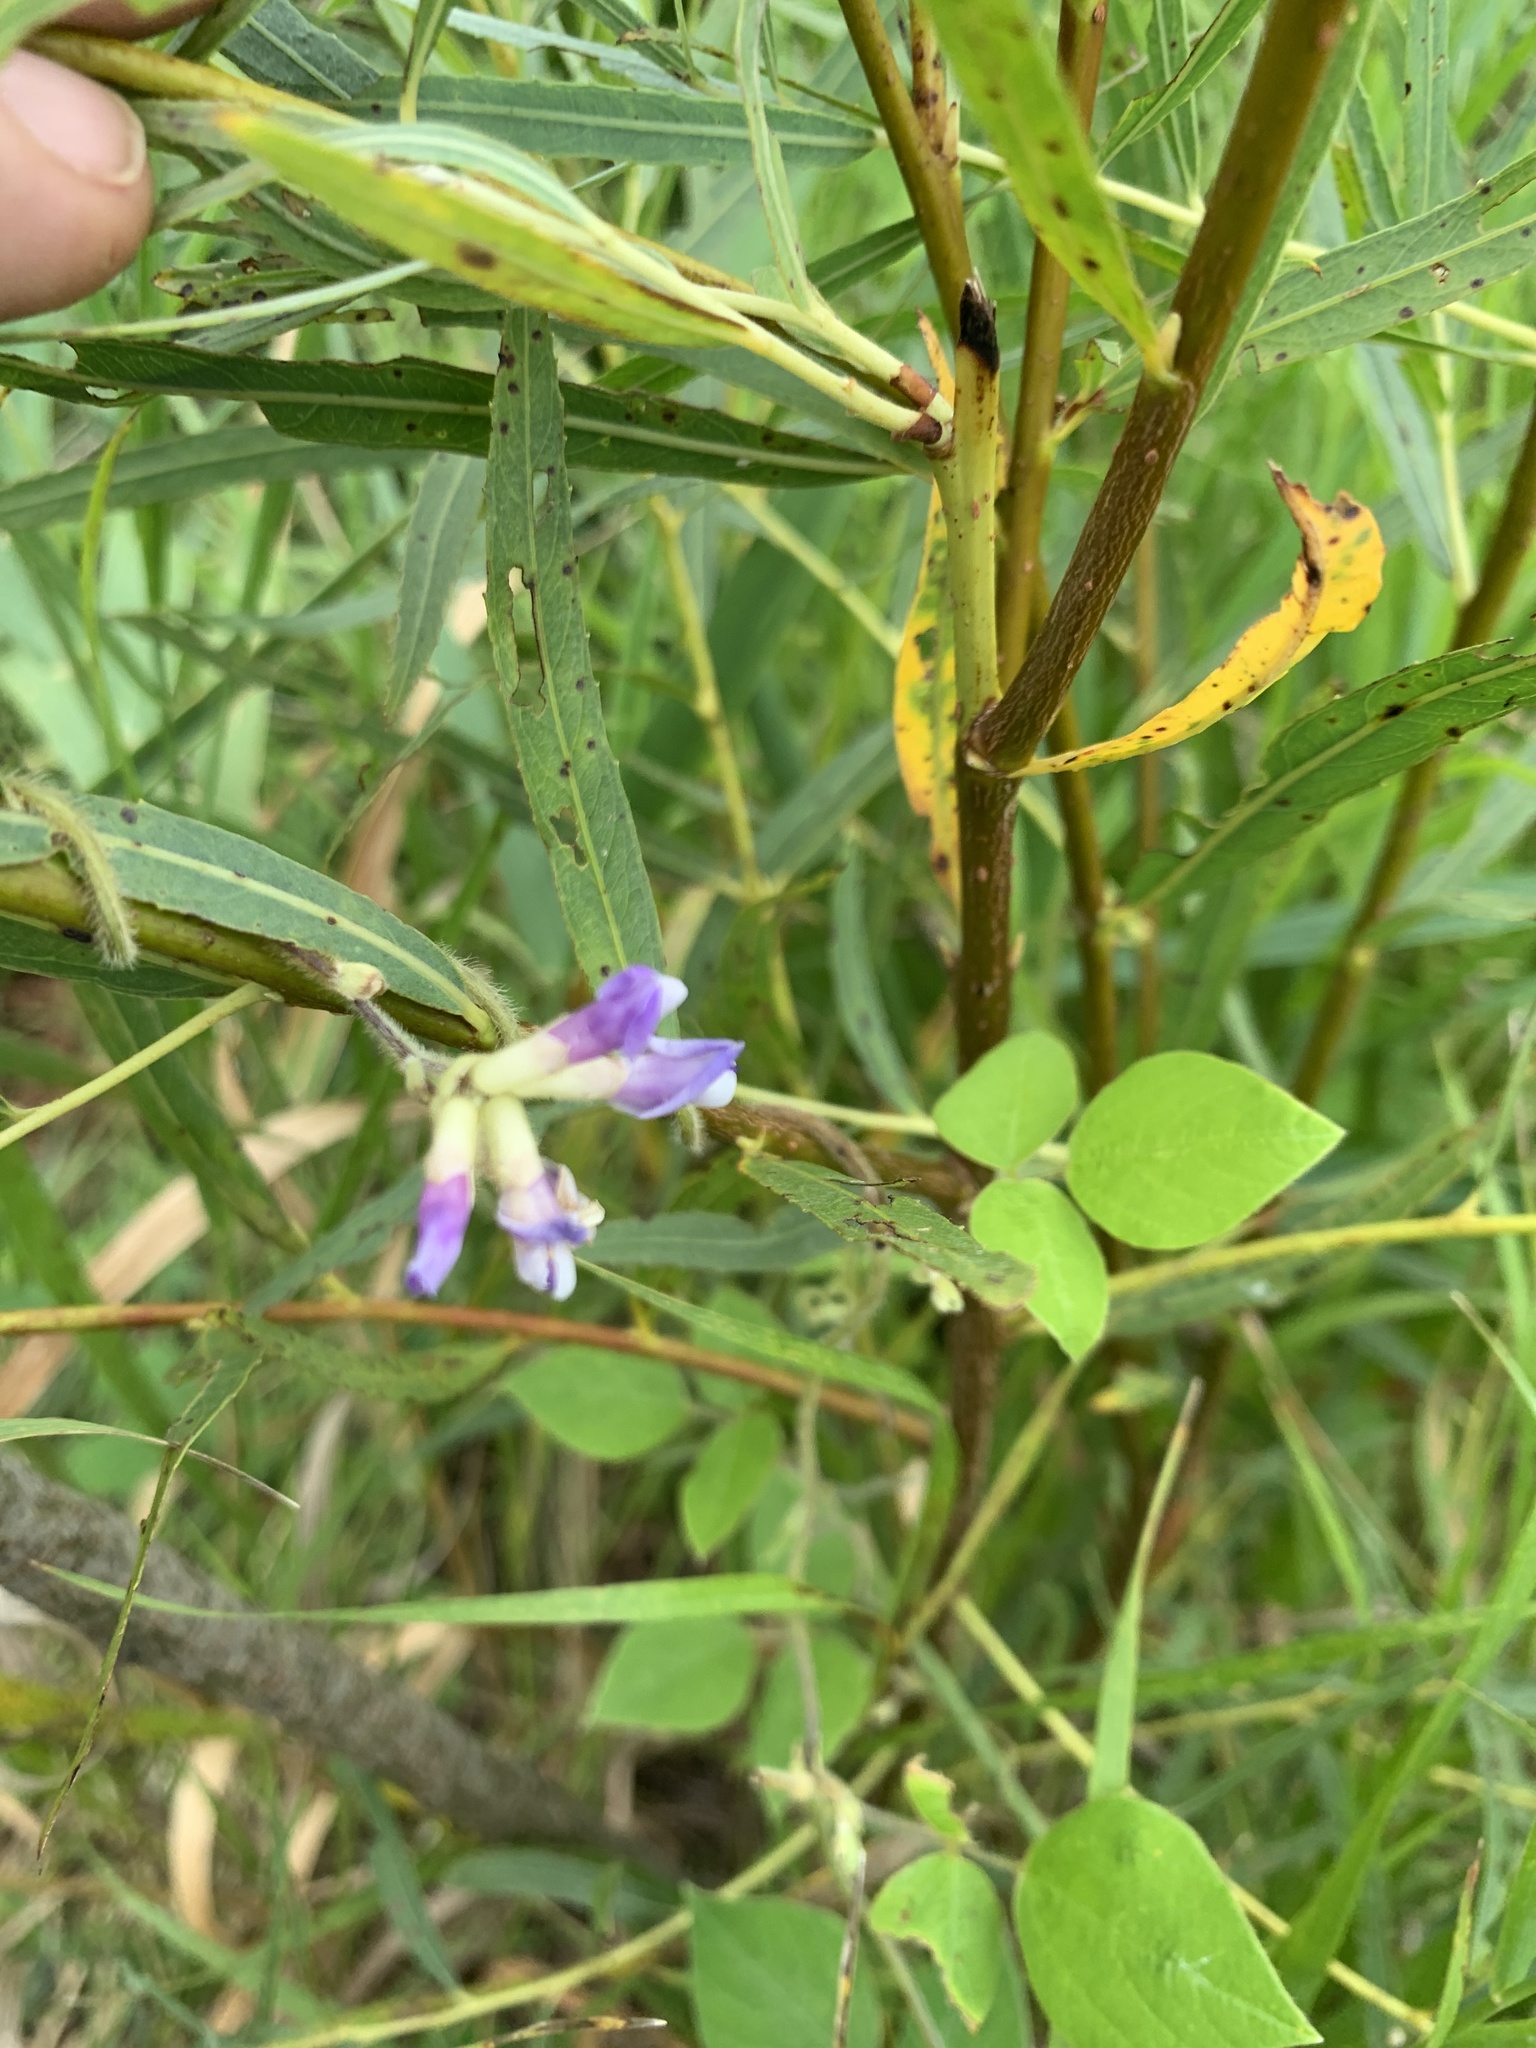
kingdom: Plantae
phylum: Tracheophyta
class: Magnoliopsida
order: Fabales
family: Fabaceae
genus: Amphicarpaea
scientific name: Amphicarpaea bracteata
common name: American hog peanut
